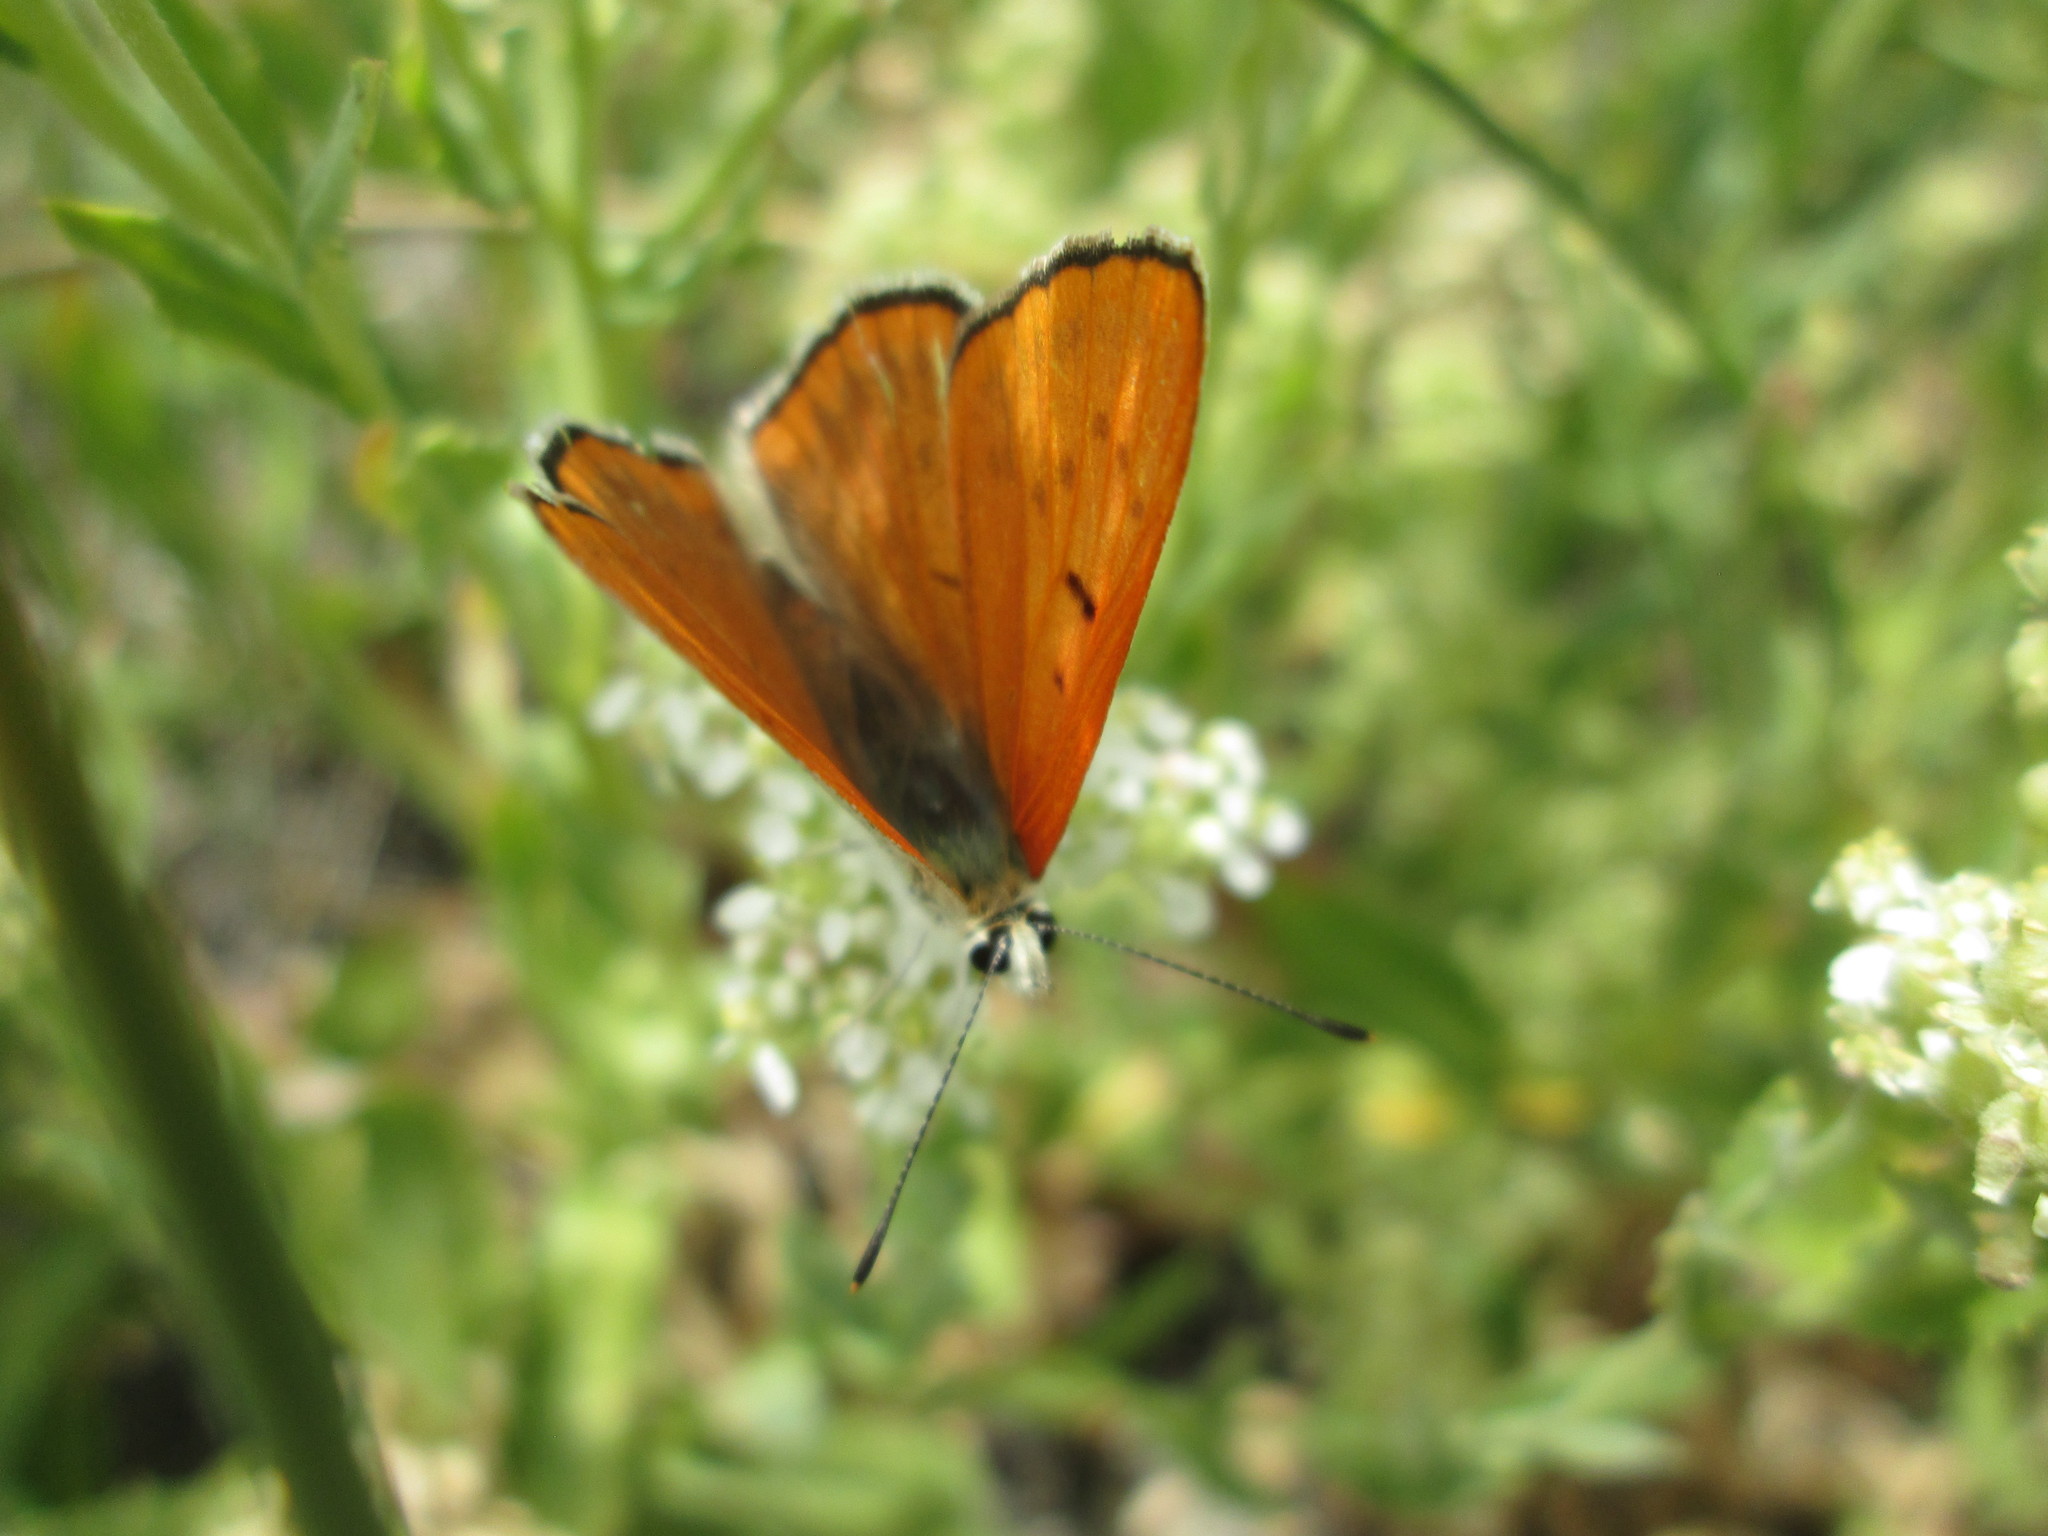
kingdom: Animalia
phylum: Arthropoda
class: Insecta
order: Lepidoptera
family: Lycaenidae
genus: Tharsalea
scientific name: Tharsalea rubidus
